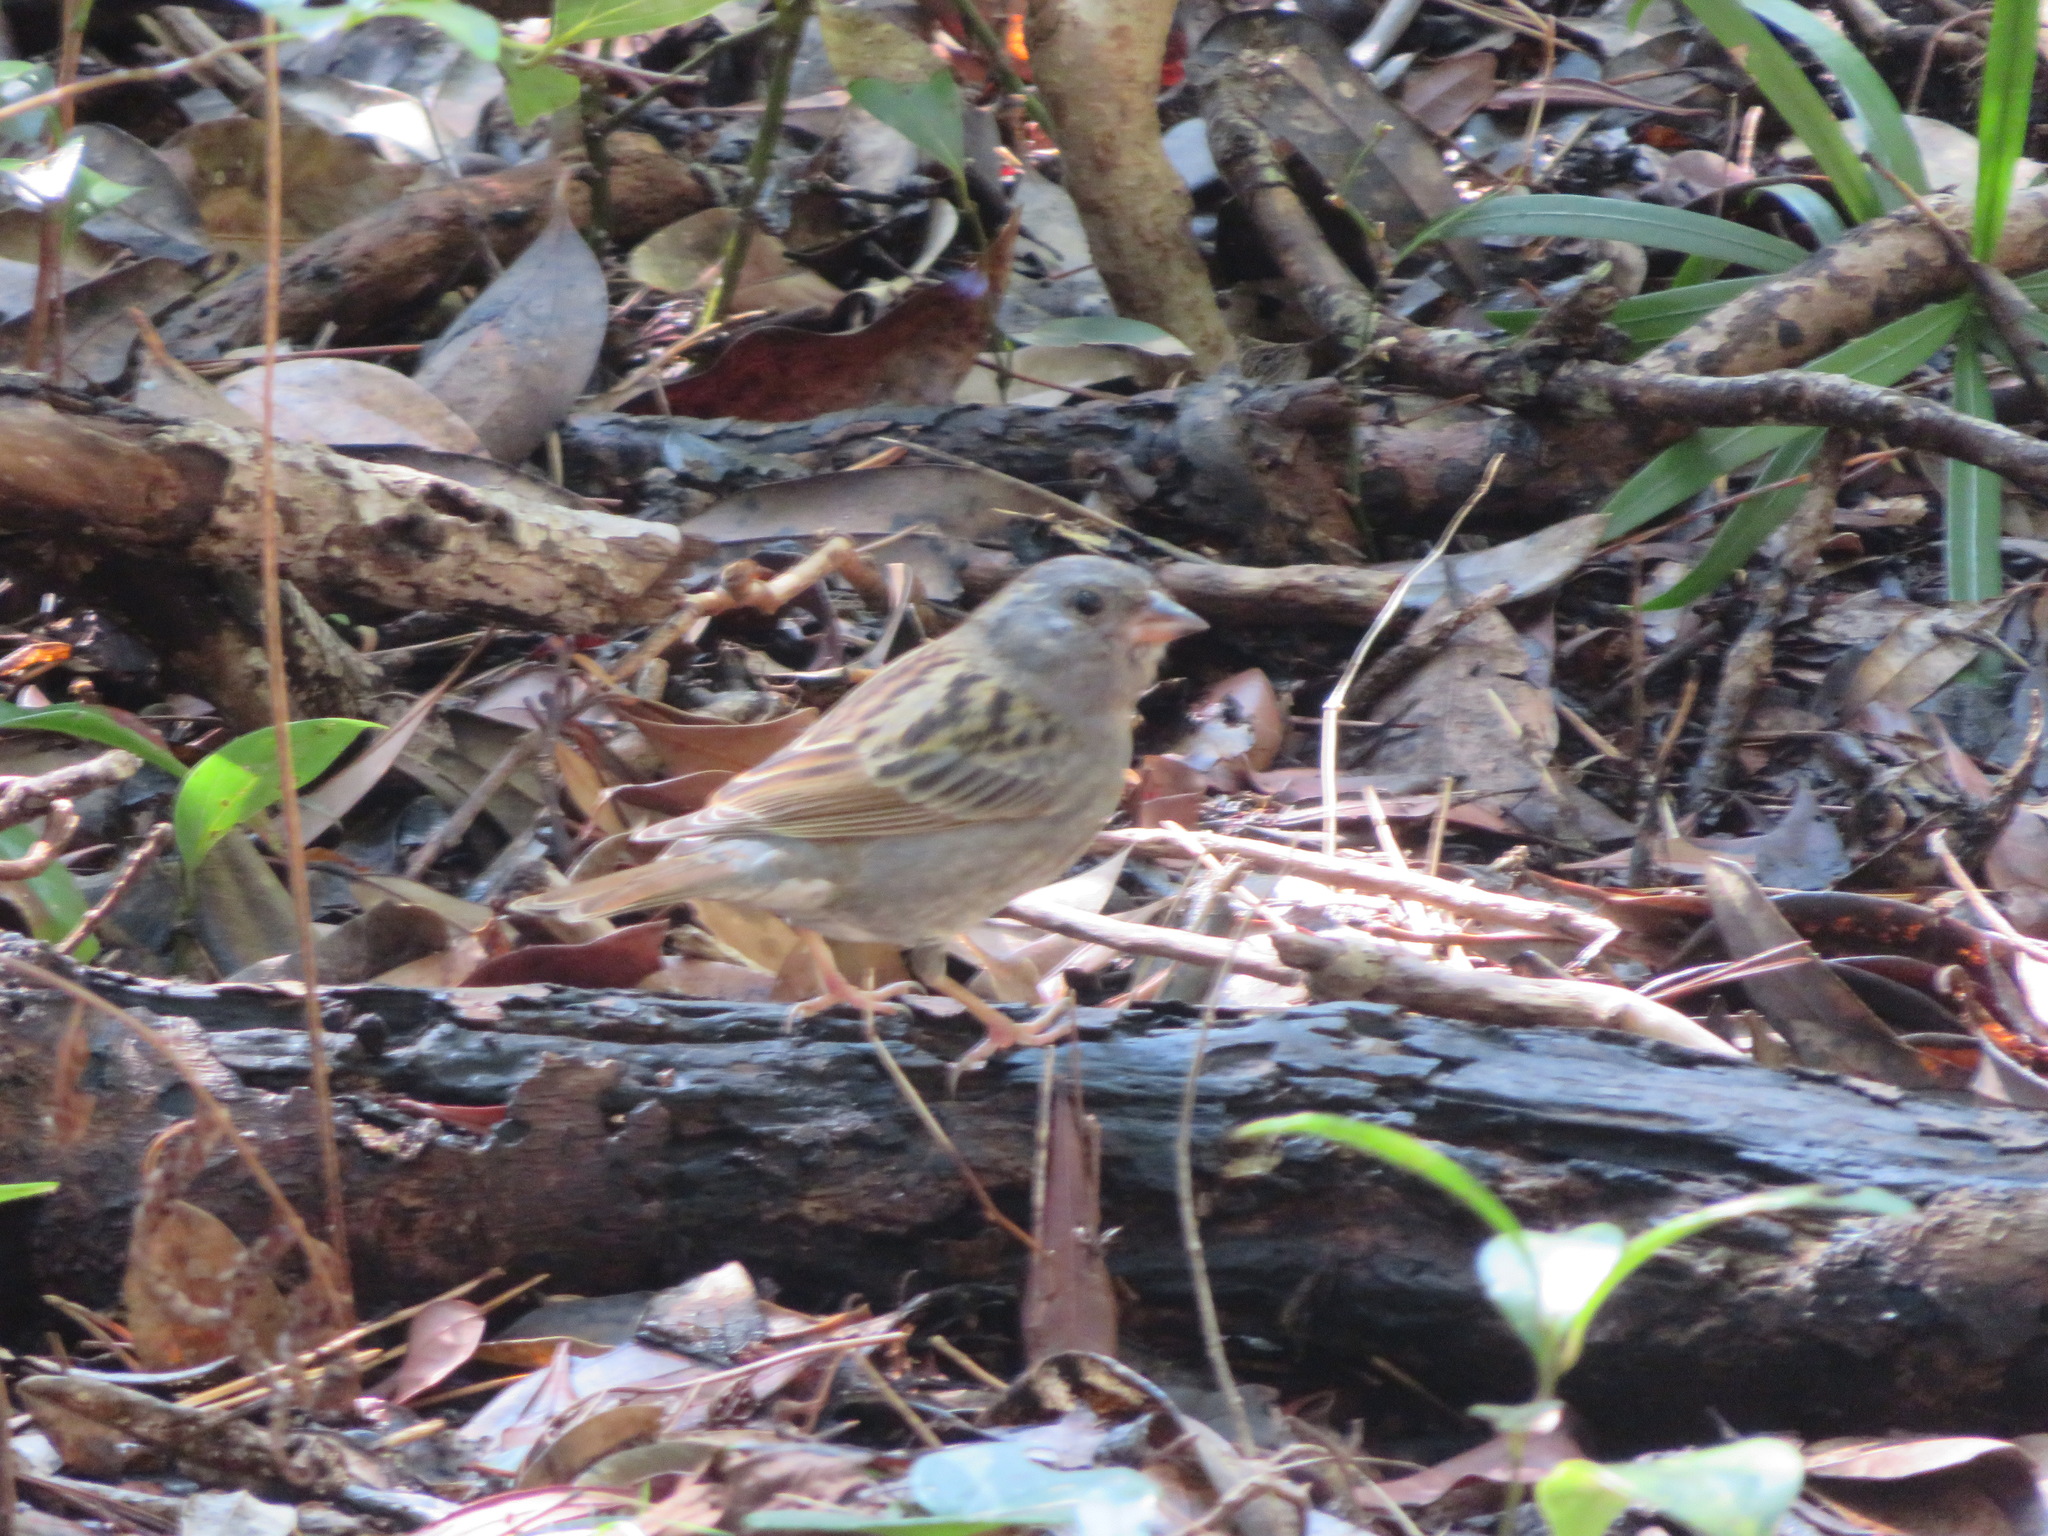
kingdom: Animalia
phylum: Chordata
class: Aves
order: Passeriformes
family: Emberizidae
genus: Emberiza
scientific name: Emberiza variabilis
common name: Gray bunting
